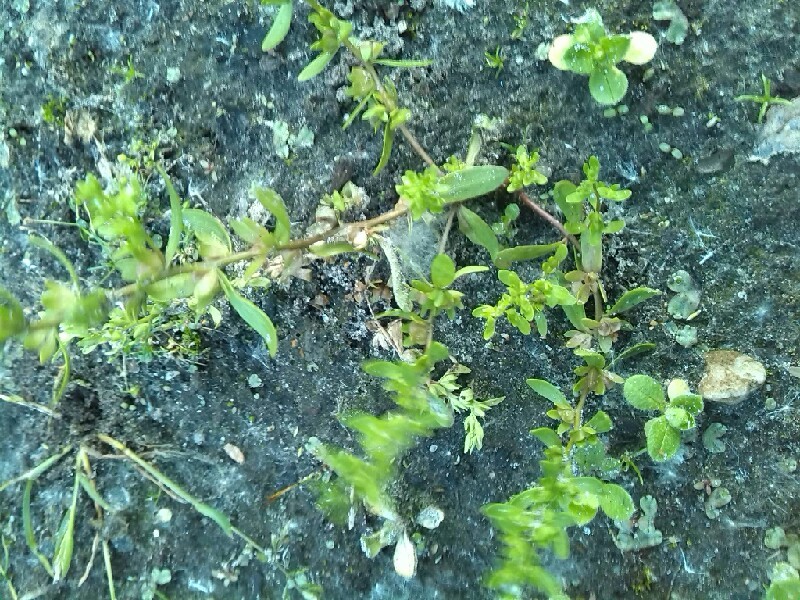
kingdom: Plantae
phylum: Tracheophyta
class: Magnoliopsida
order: Lamiales
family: Plantaginaceae
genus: Veronica
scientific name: Veronica peregrina
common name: Neckweed
